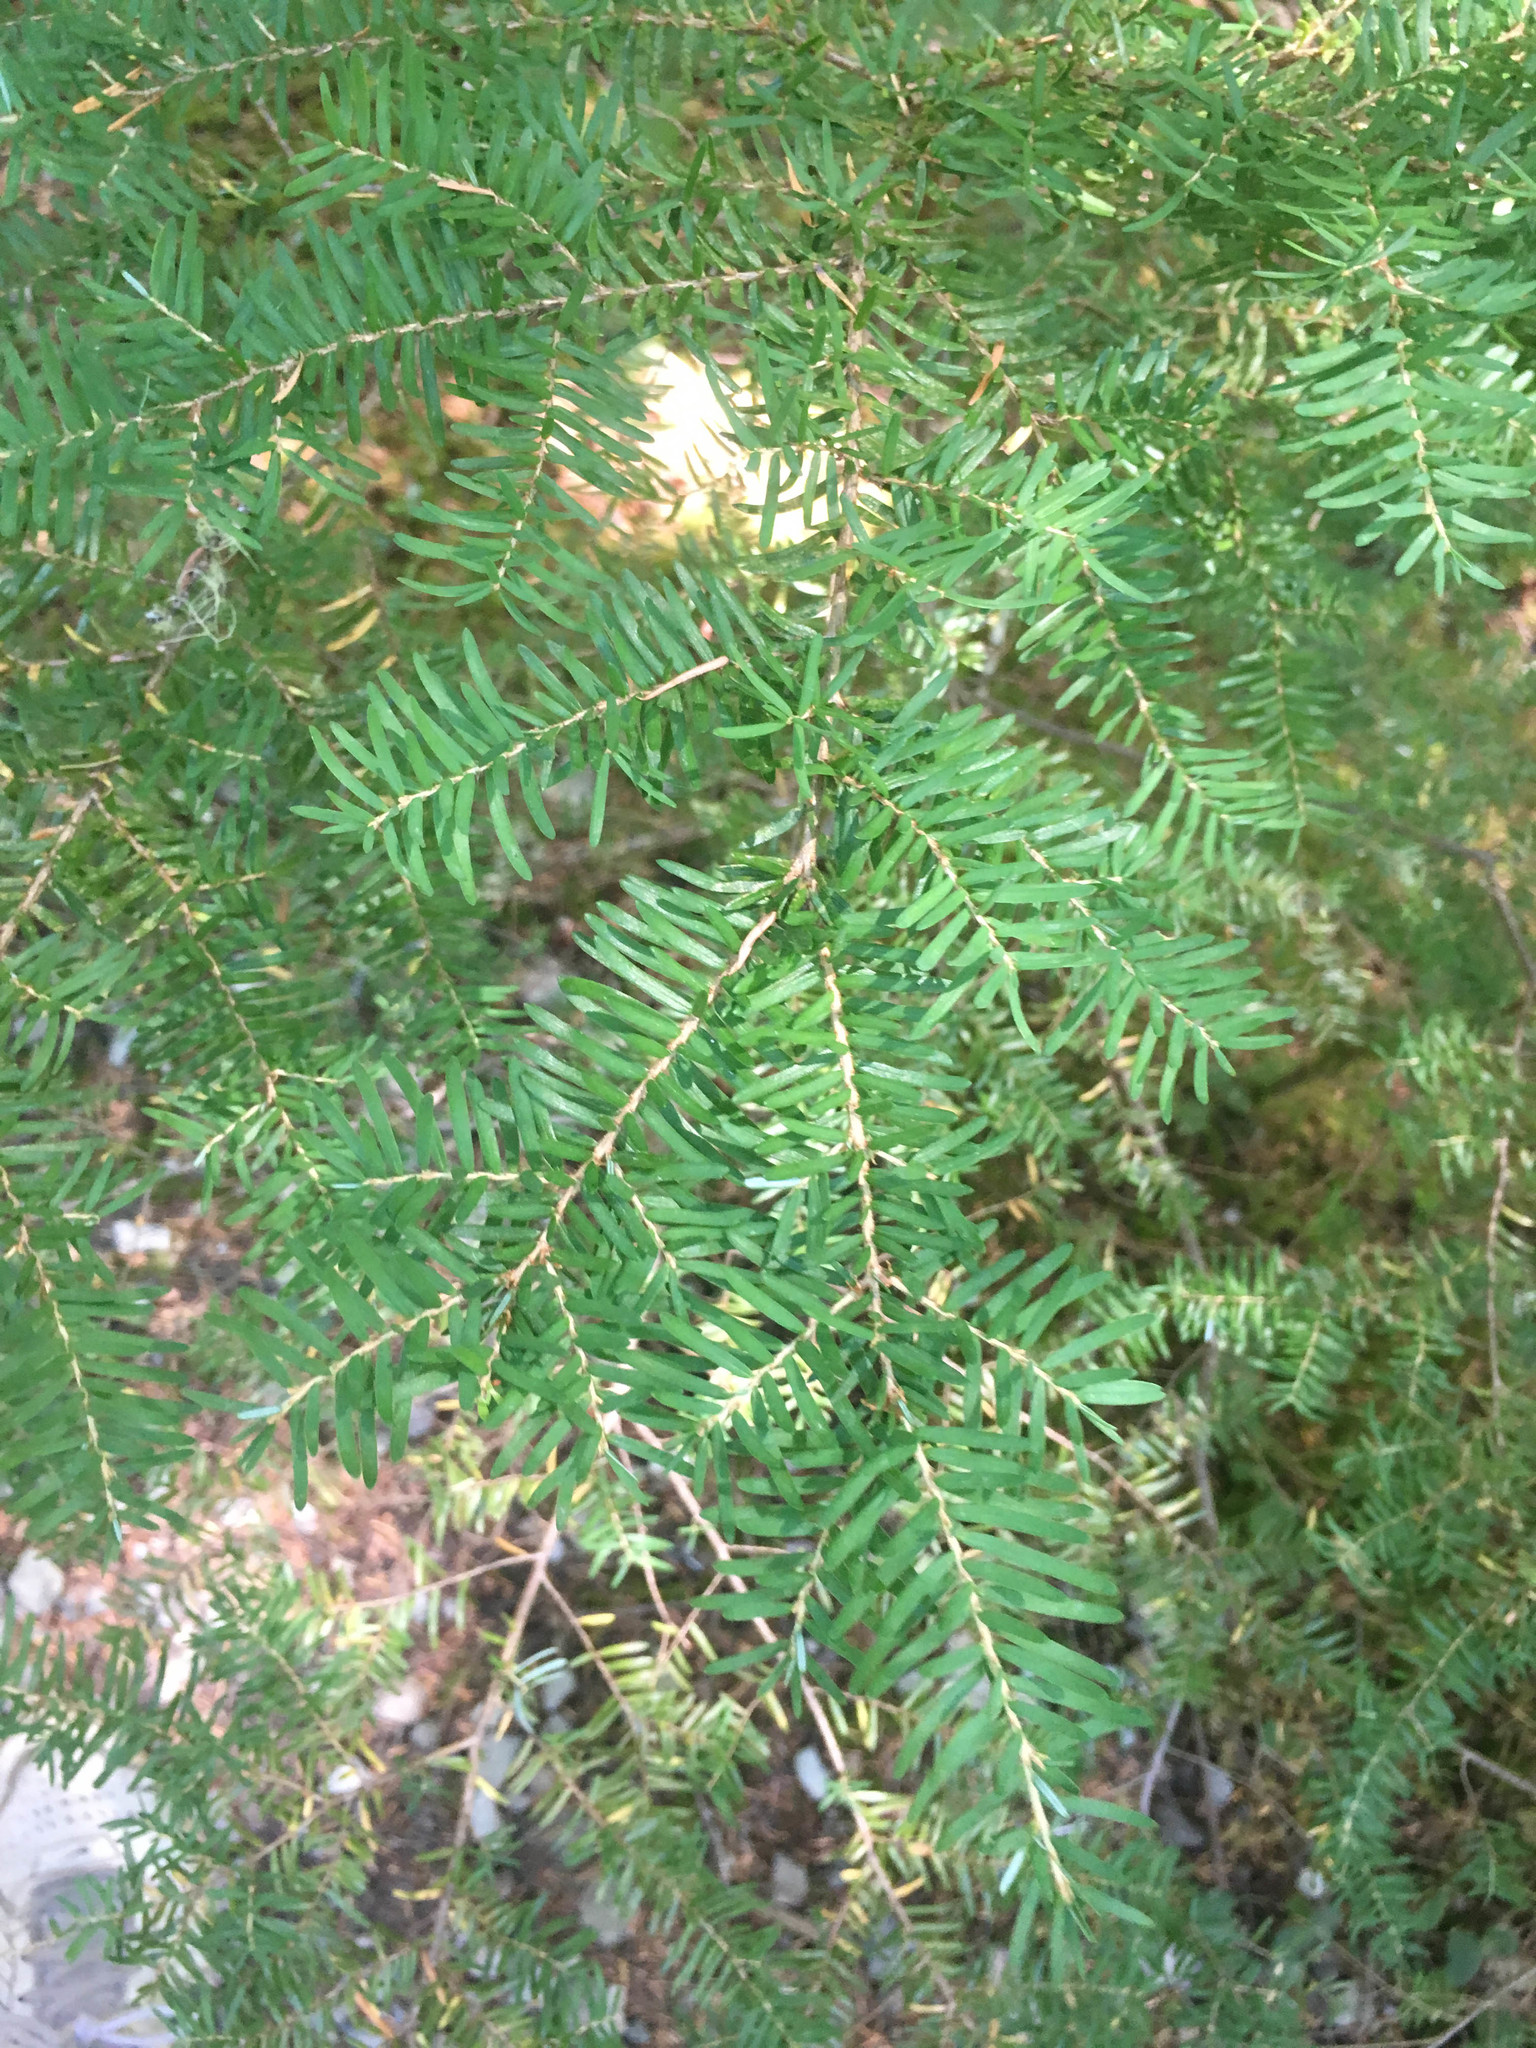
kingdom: Plantae
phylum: Tracheophyta
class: Pinopsida
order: Pinales
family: Pinaceae
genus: Tsuga
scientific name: Tsuga heterophylla
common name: Western hemlock
